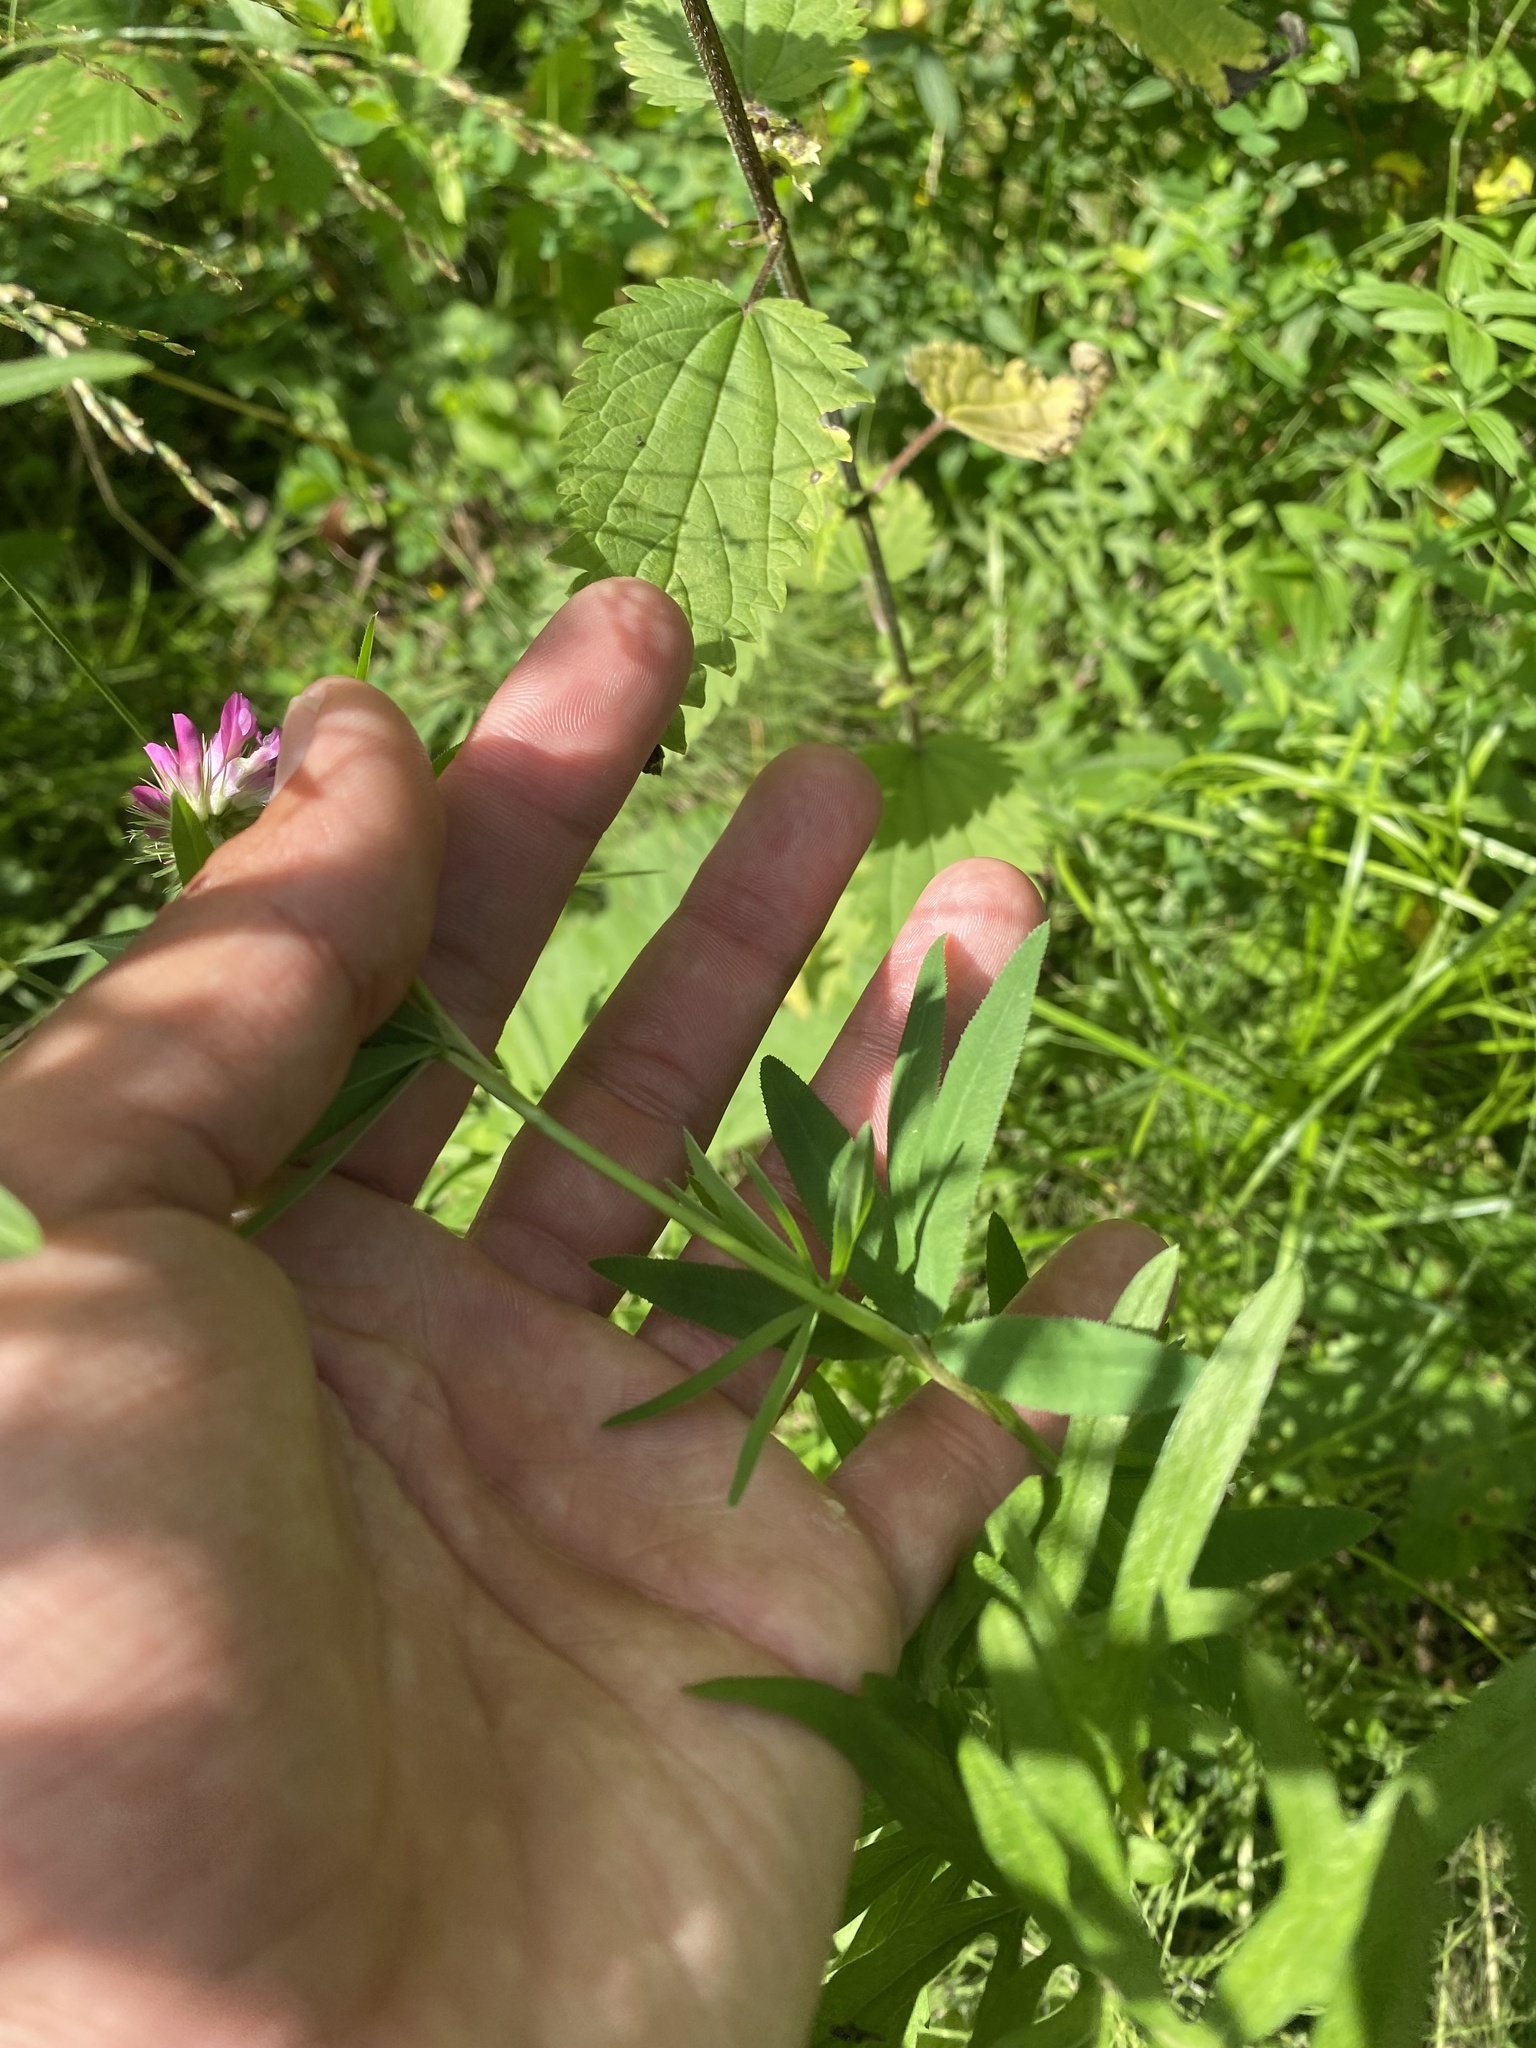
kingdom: Plantae
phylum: Tracheophyta
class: Magnoliopsida
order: Fabales
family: Fabaceae
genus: Trifolium
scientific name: Trifolium lupinaster
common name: Lupine clover
